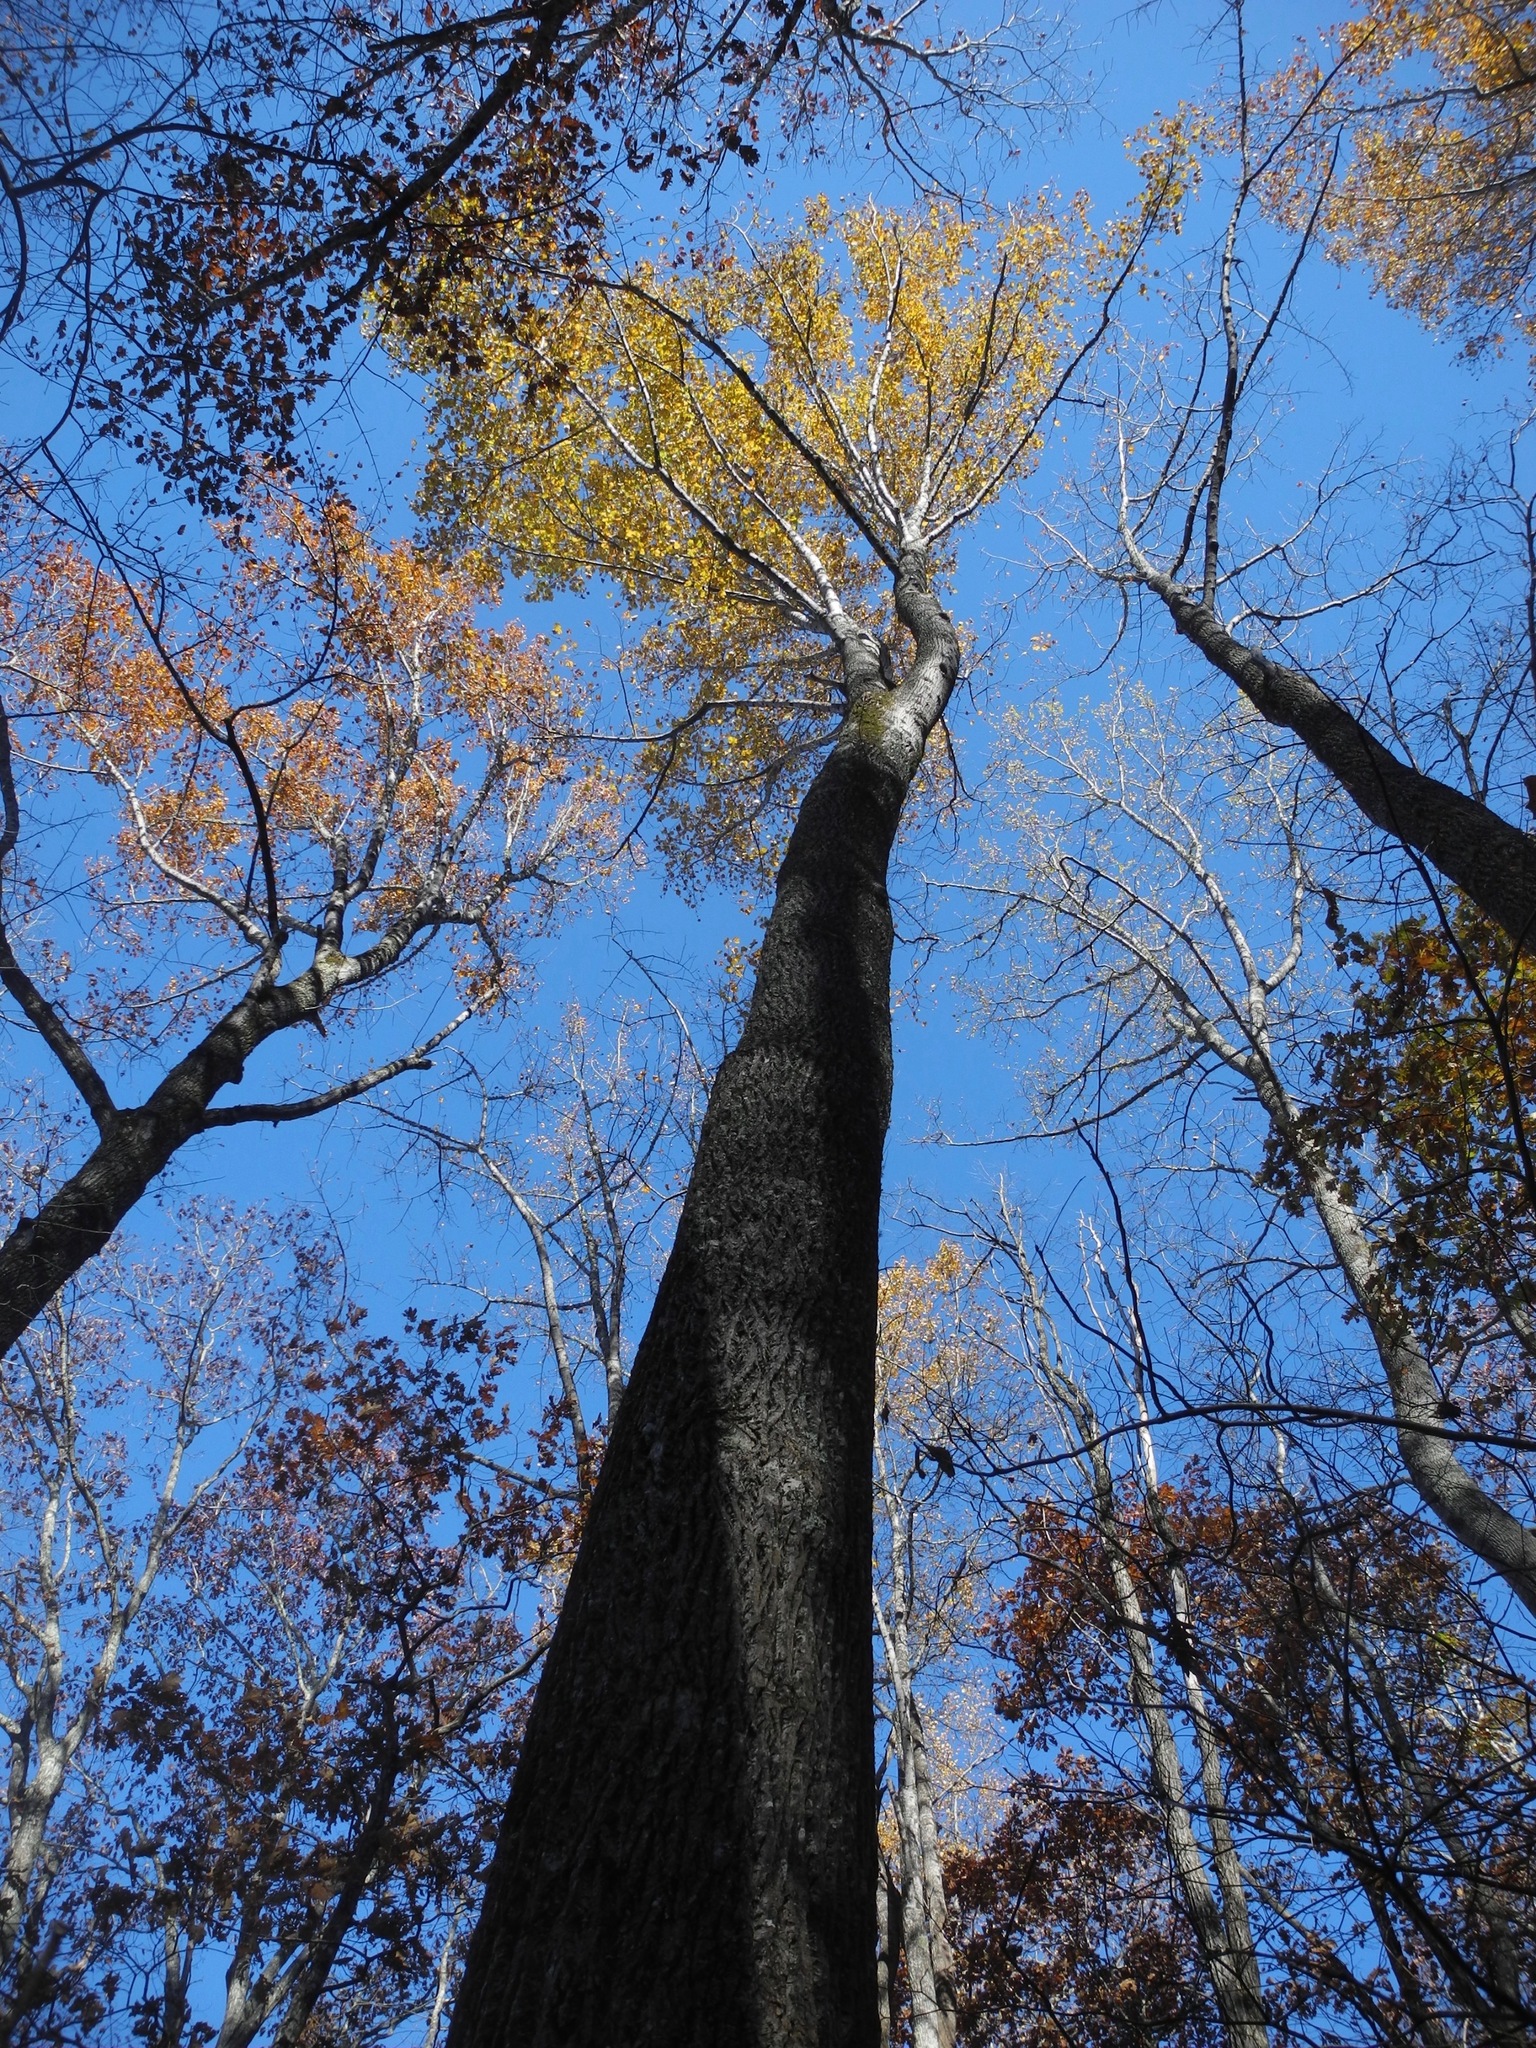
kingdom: Plantae
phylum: Tracheophyta
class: Magnoliopsida
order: Magnoliales
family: Magnoliaceae
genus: Liriodendron
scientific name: Liriodendron tulipifera
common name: Tulip tree
